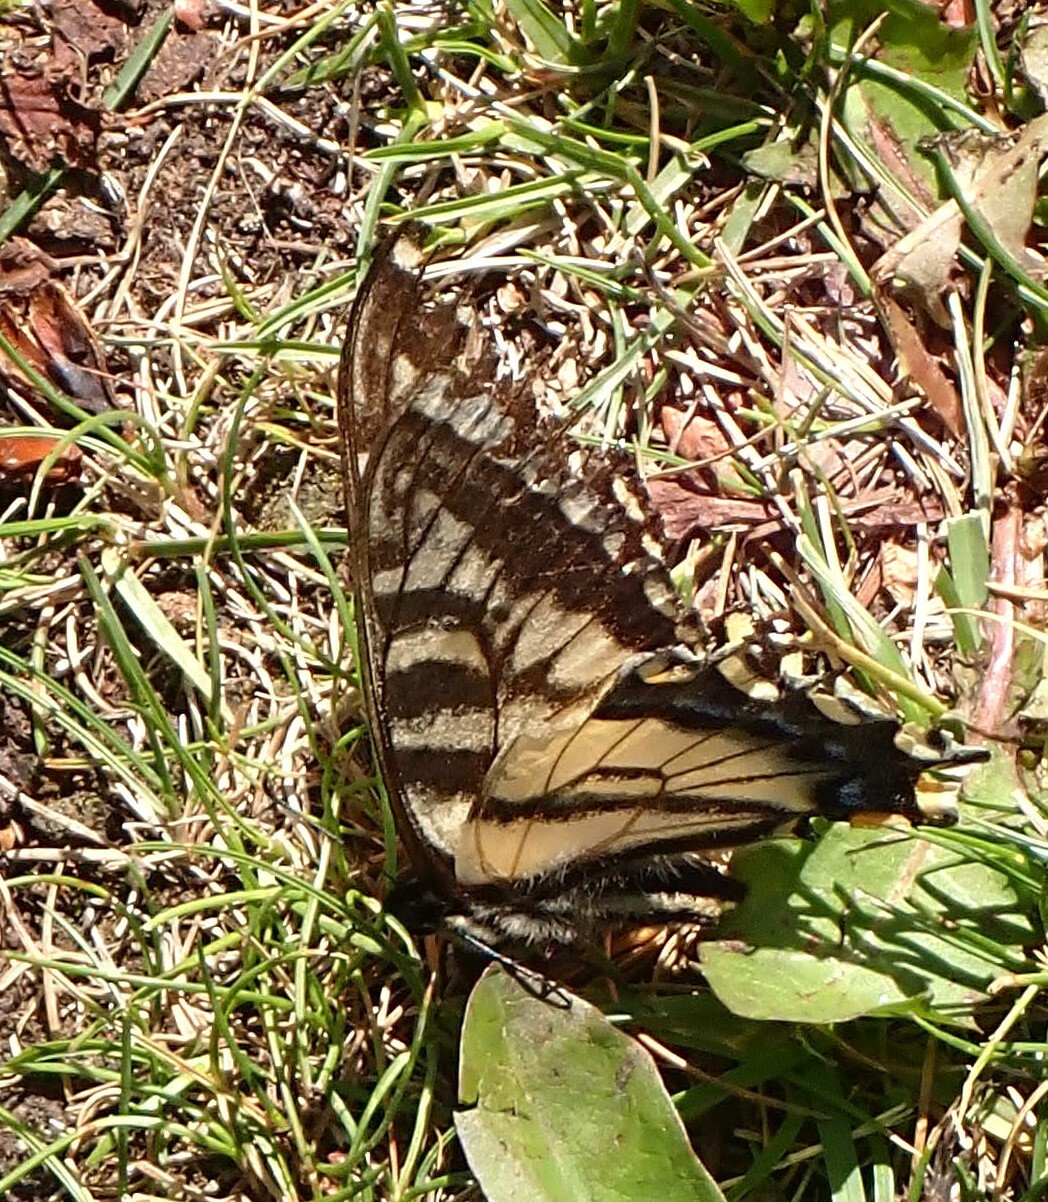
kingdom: Animalia
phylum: Arthropoda
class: Insecta
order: Lepidoptera
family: Papilionidae
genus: Papilio
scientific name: Papilio canadensis
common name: Canadian tiger swallowtail
